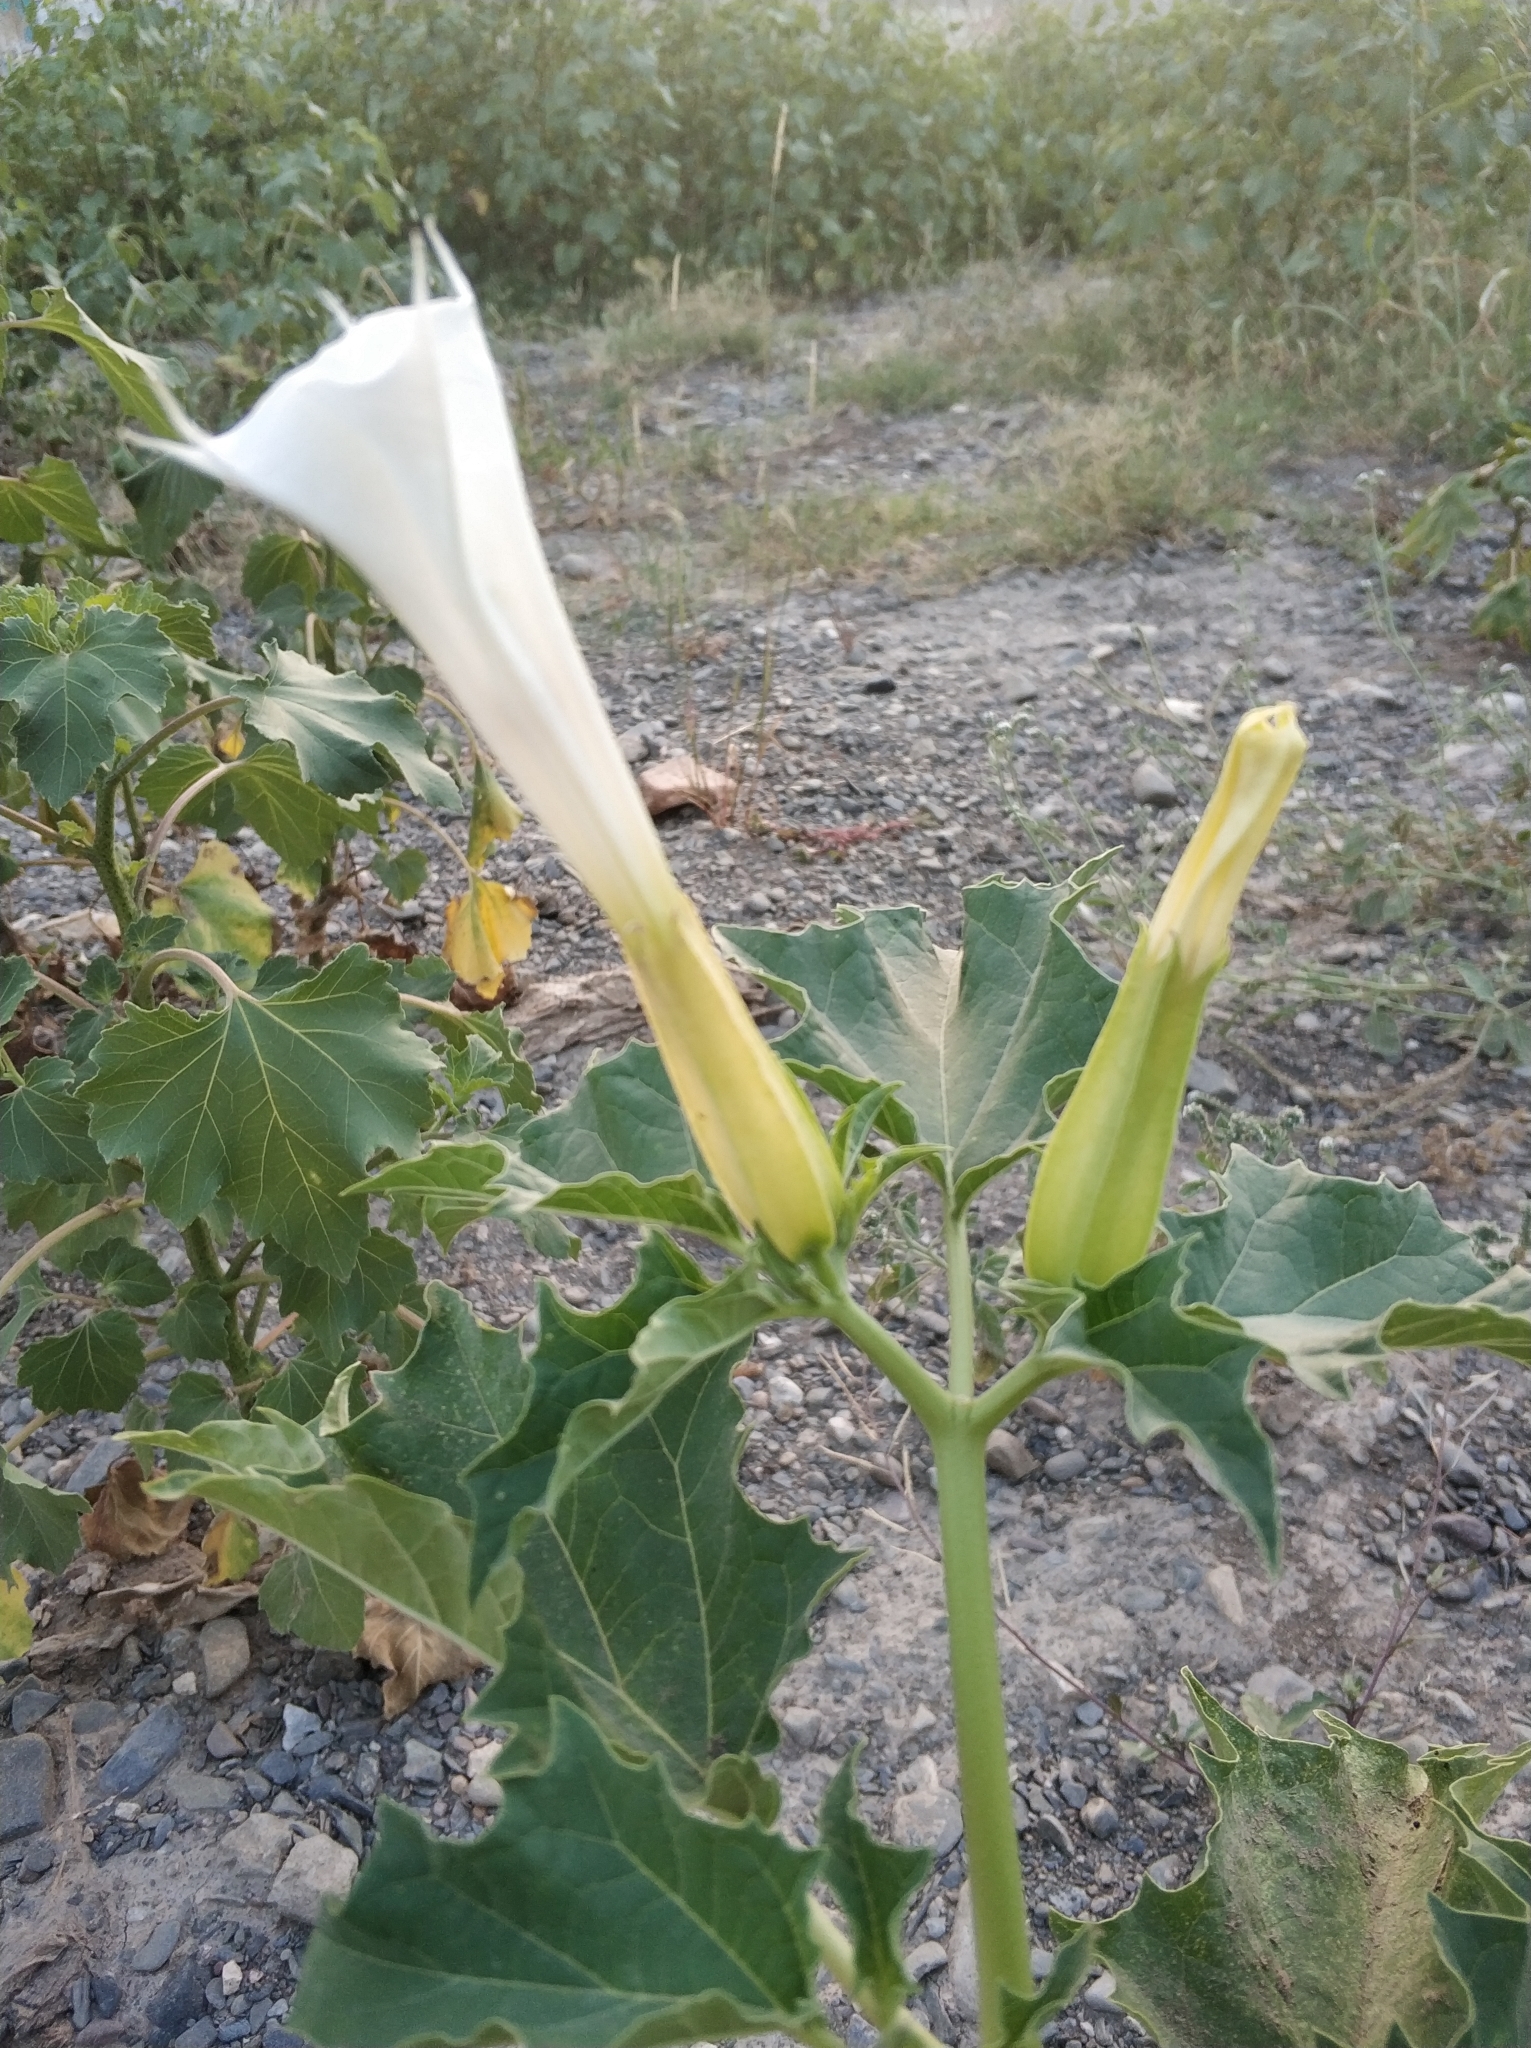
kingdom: Plantae
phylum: Tracheophyta
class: Magnoliopsida
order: Solanales
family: Solanaceae
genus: Datura
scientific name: Datura stramonium
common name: Thorn-apple
